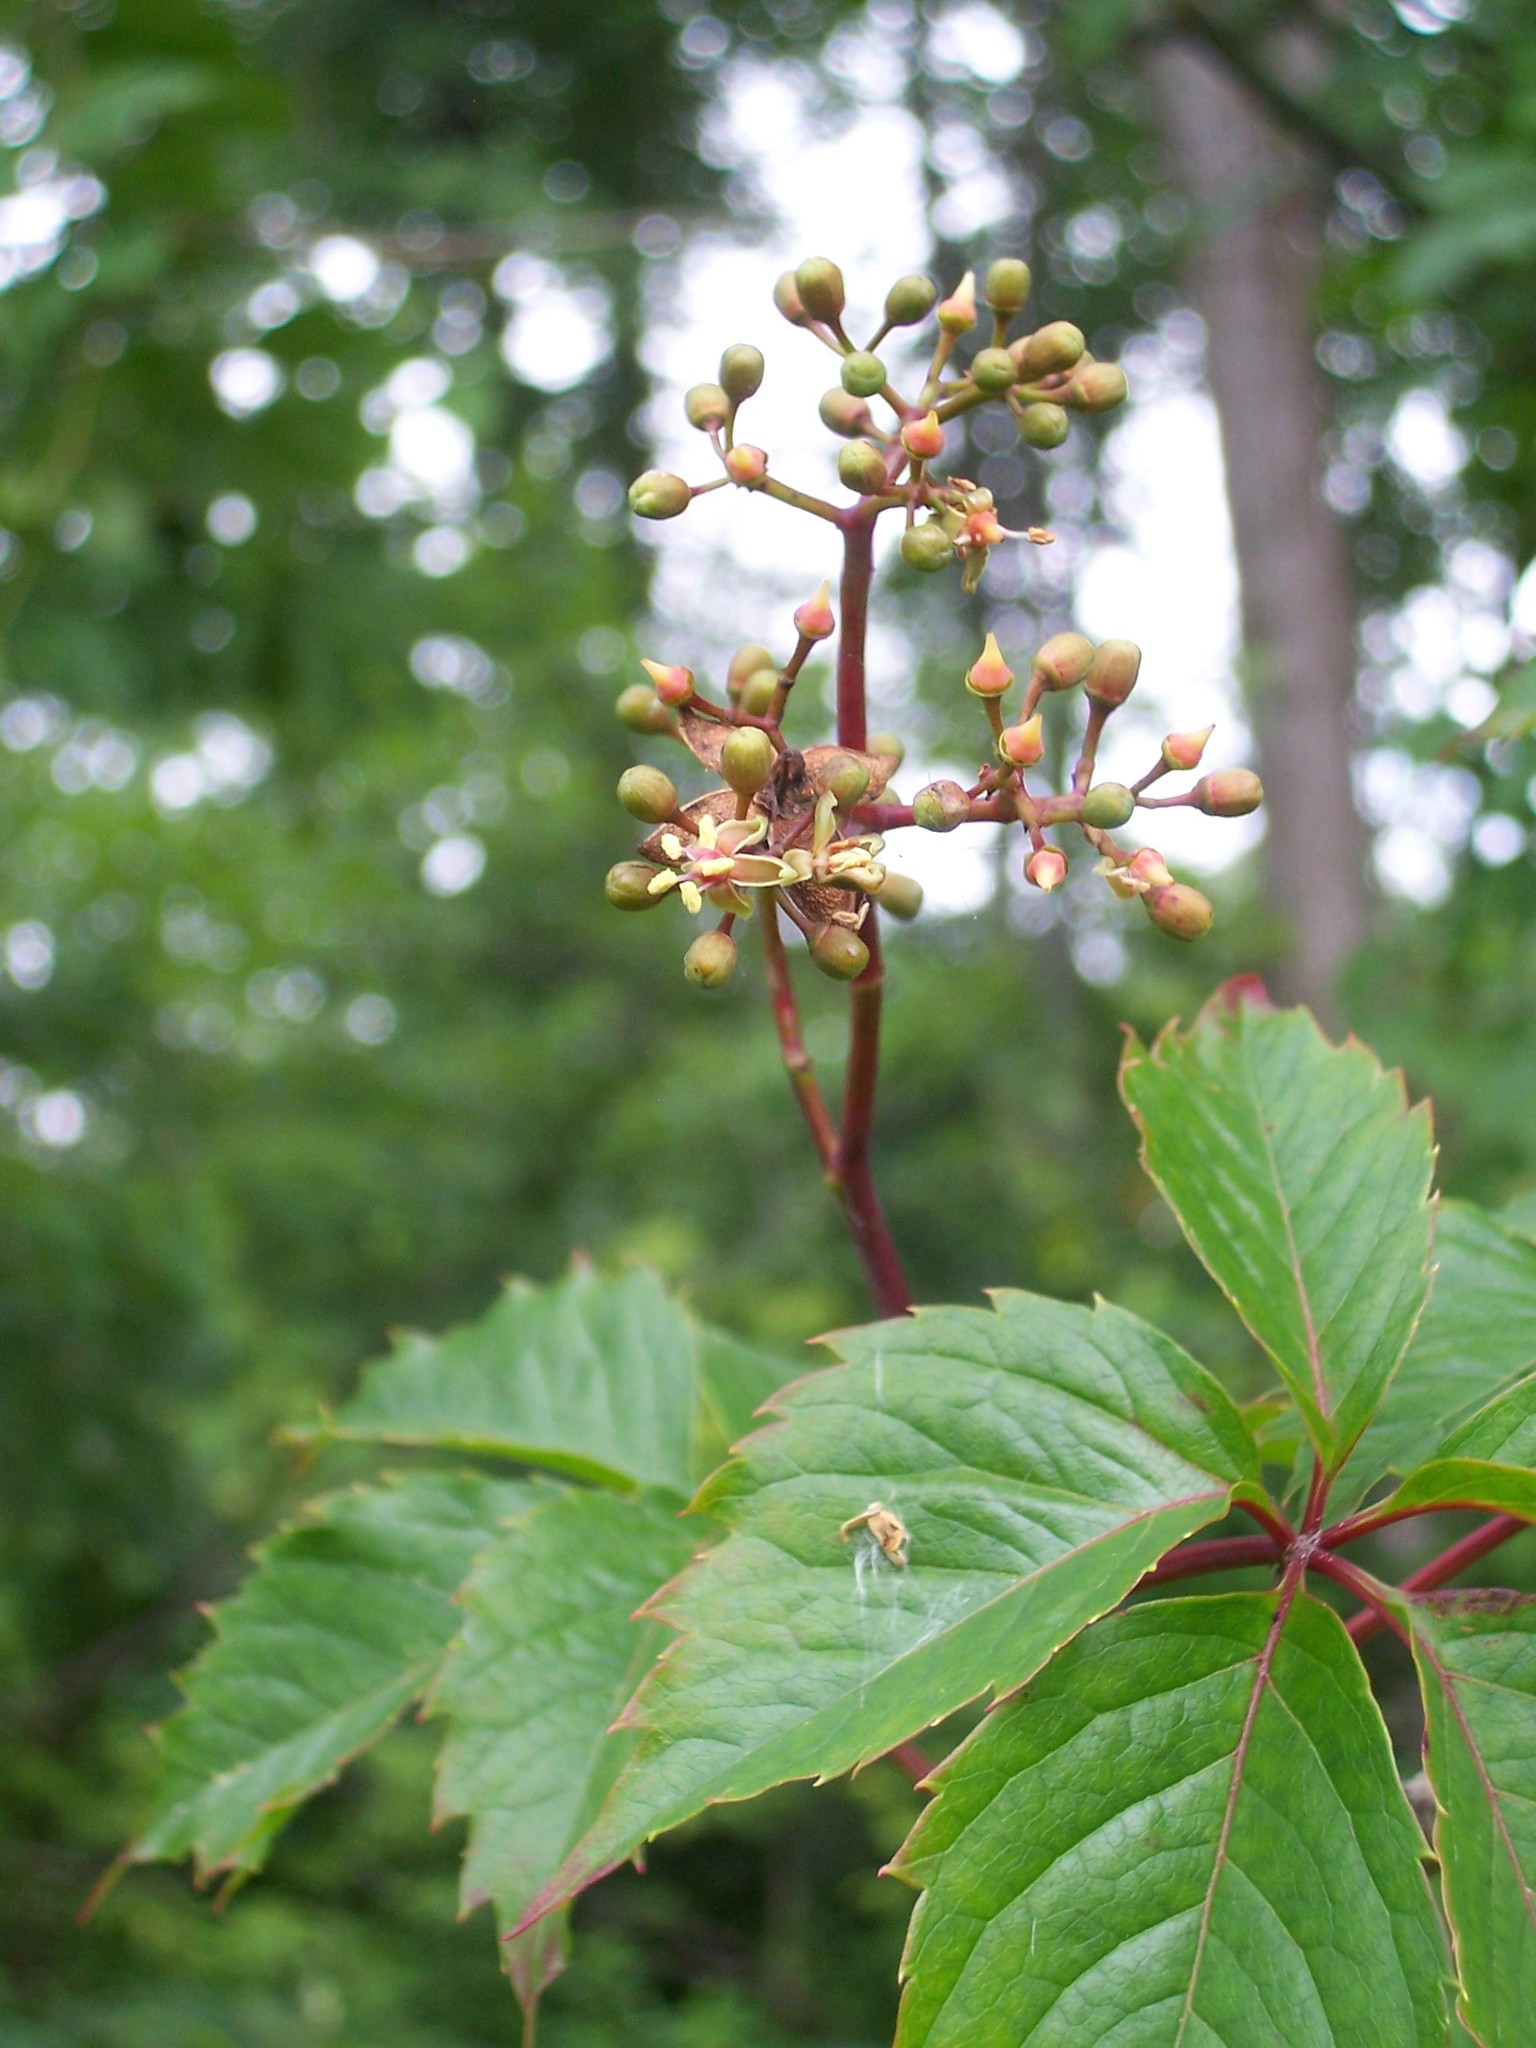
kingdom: Plantae
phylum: Tracheophyta
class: Magnoliopsida
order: Vitales
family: Vitaceae
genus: Parthenocissus
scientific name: Parthenocissus quinquefolia
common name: Virginia-creeper
